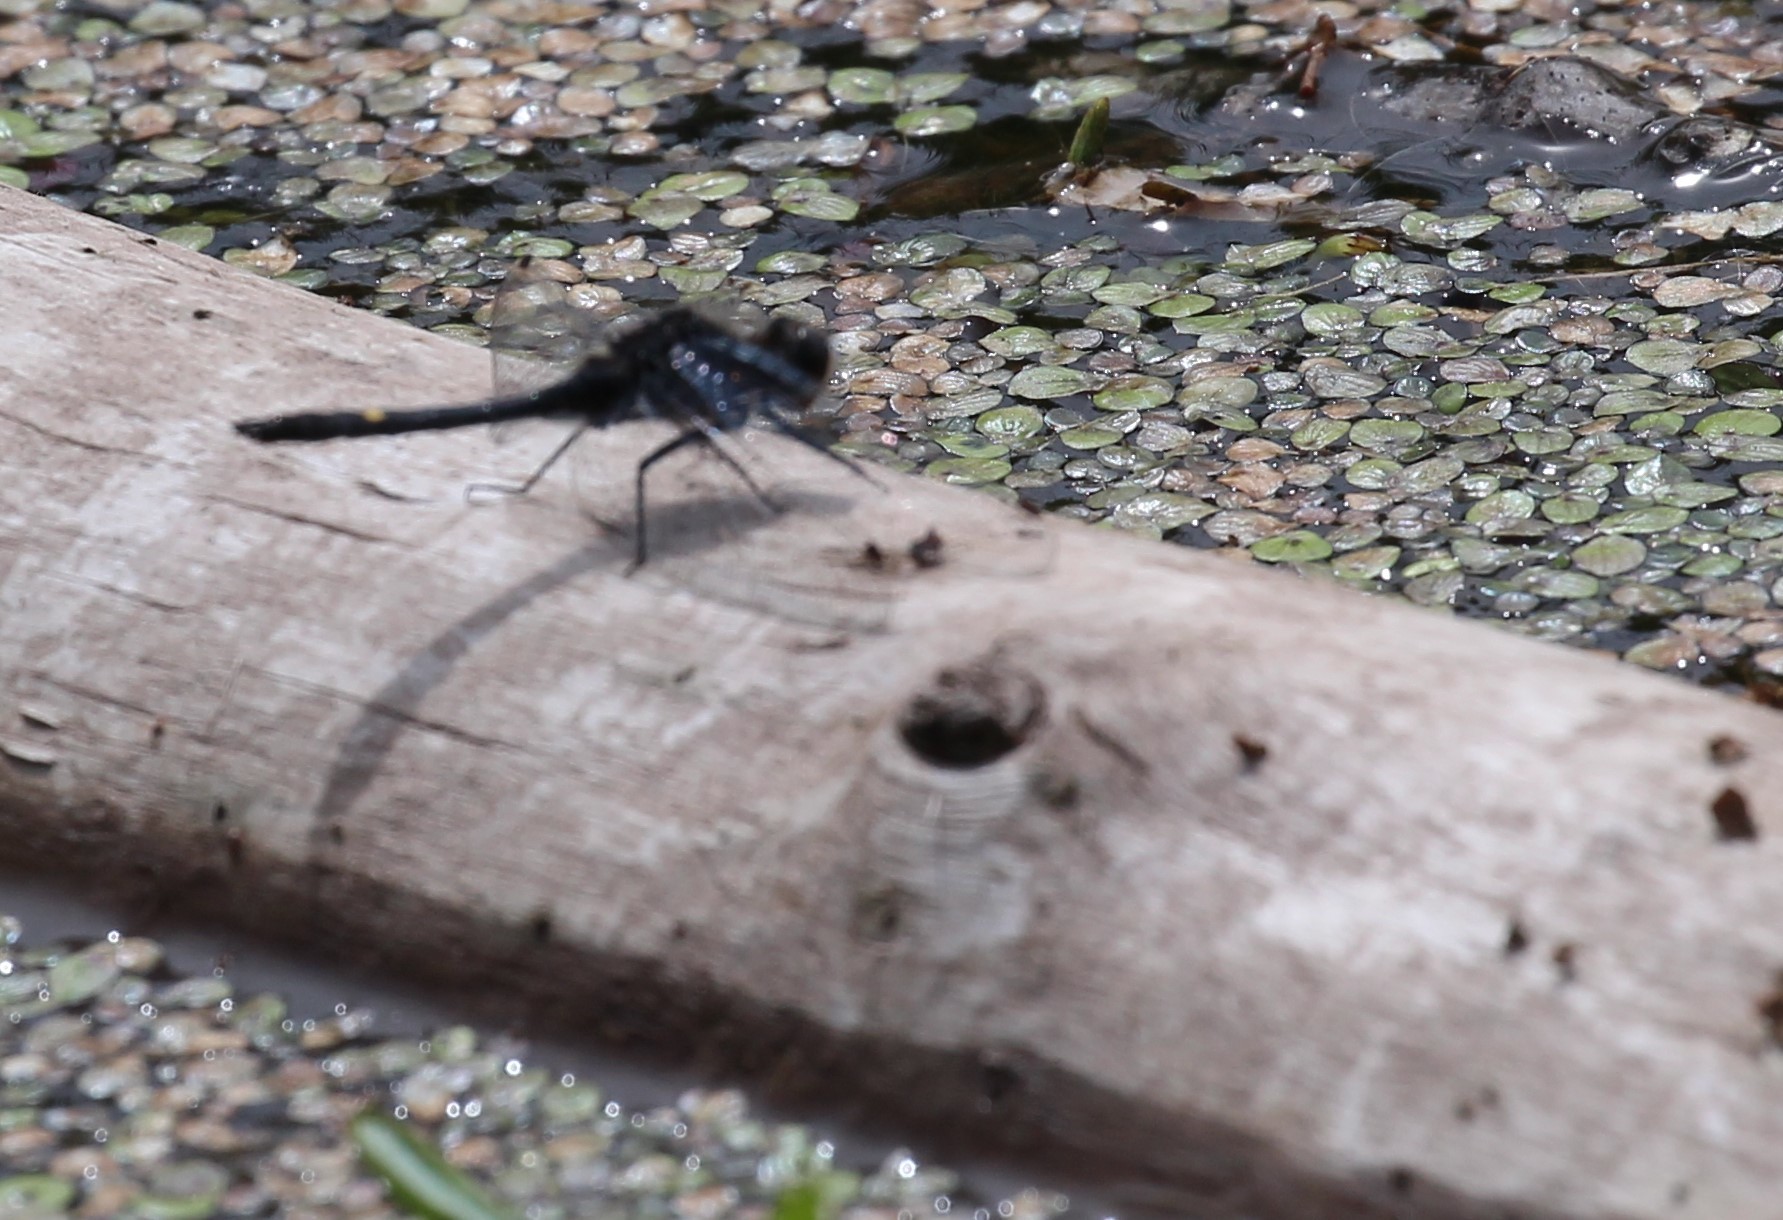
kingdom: Animalia
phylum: Arthropoda
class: Insecta
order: Odonata
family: Libellulidae
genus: Leucorrhinia
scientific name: Leucorrhinia intacta
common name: Dot-tailed whiteface
